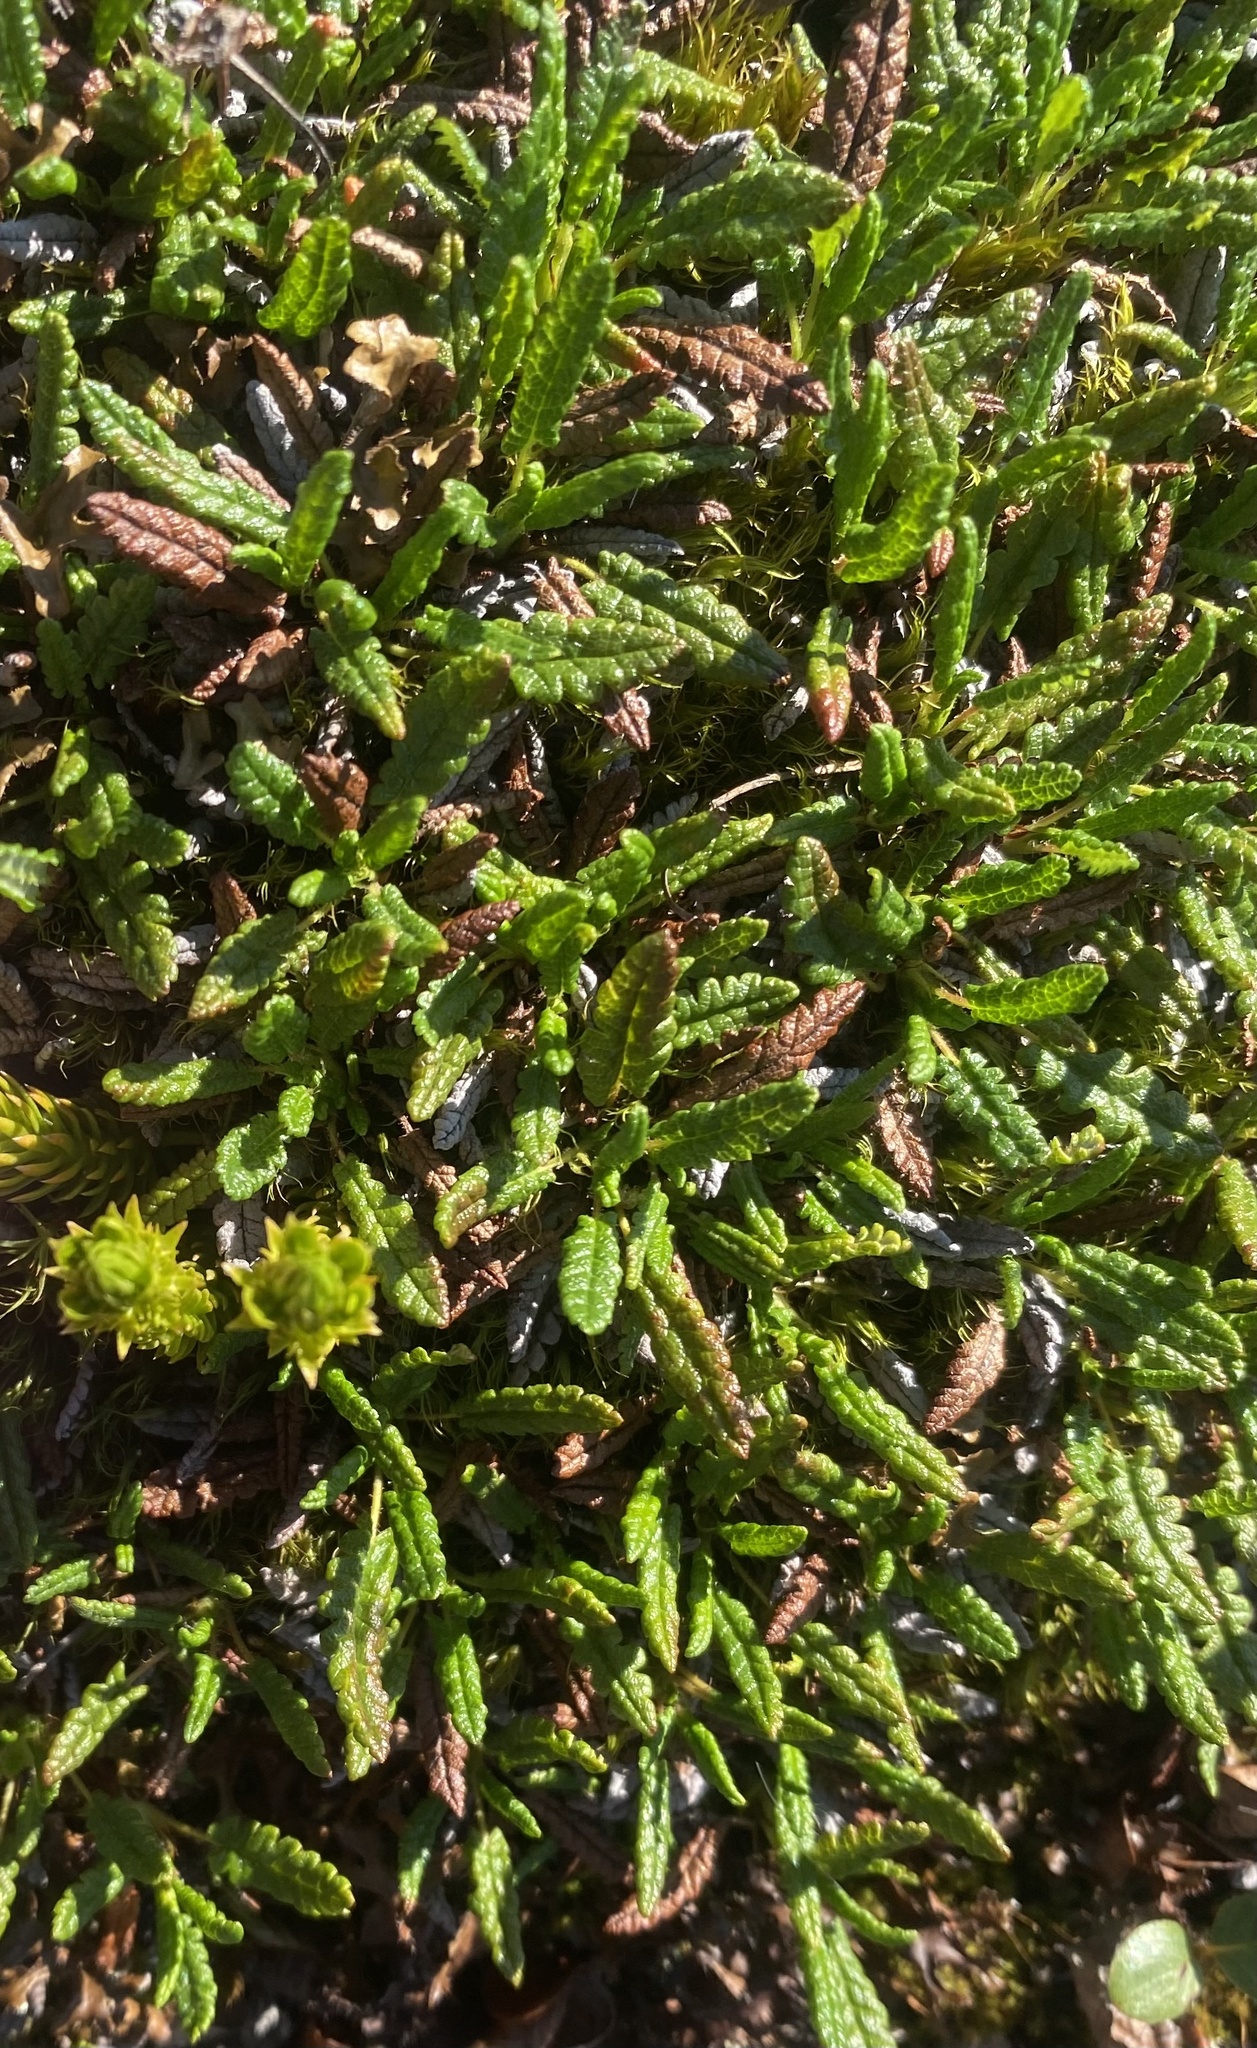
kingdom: Plantae
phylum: Tracheophyta
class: Magnoliopsida
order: Rosales
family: Rosaceae
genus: Dryas
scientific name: Dryas octopetala
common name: Eight-petal mountain-avens
